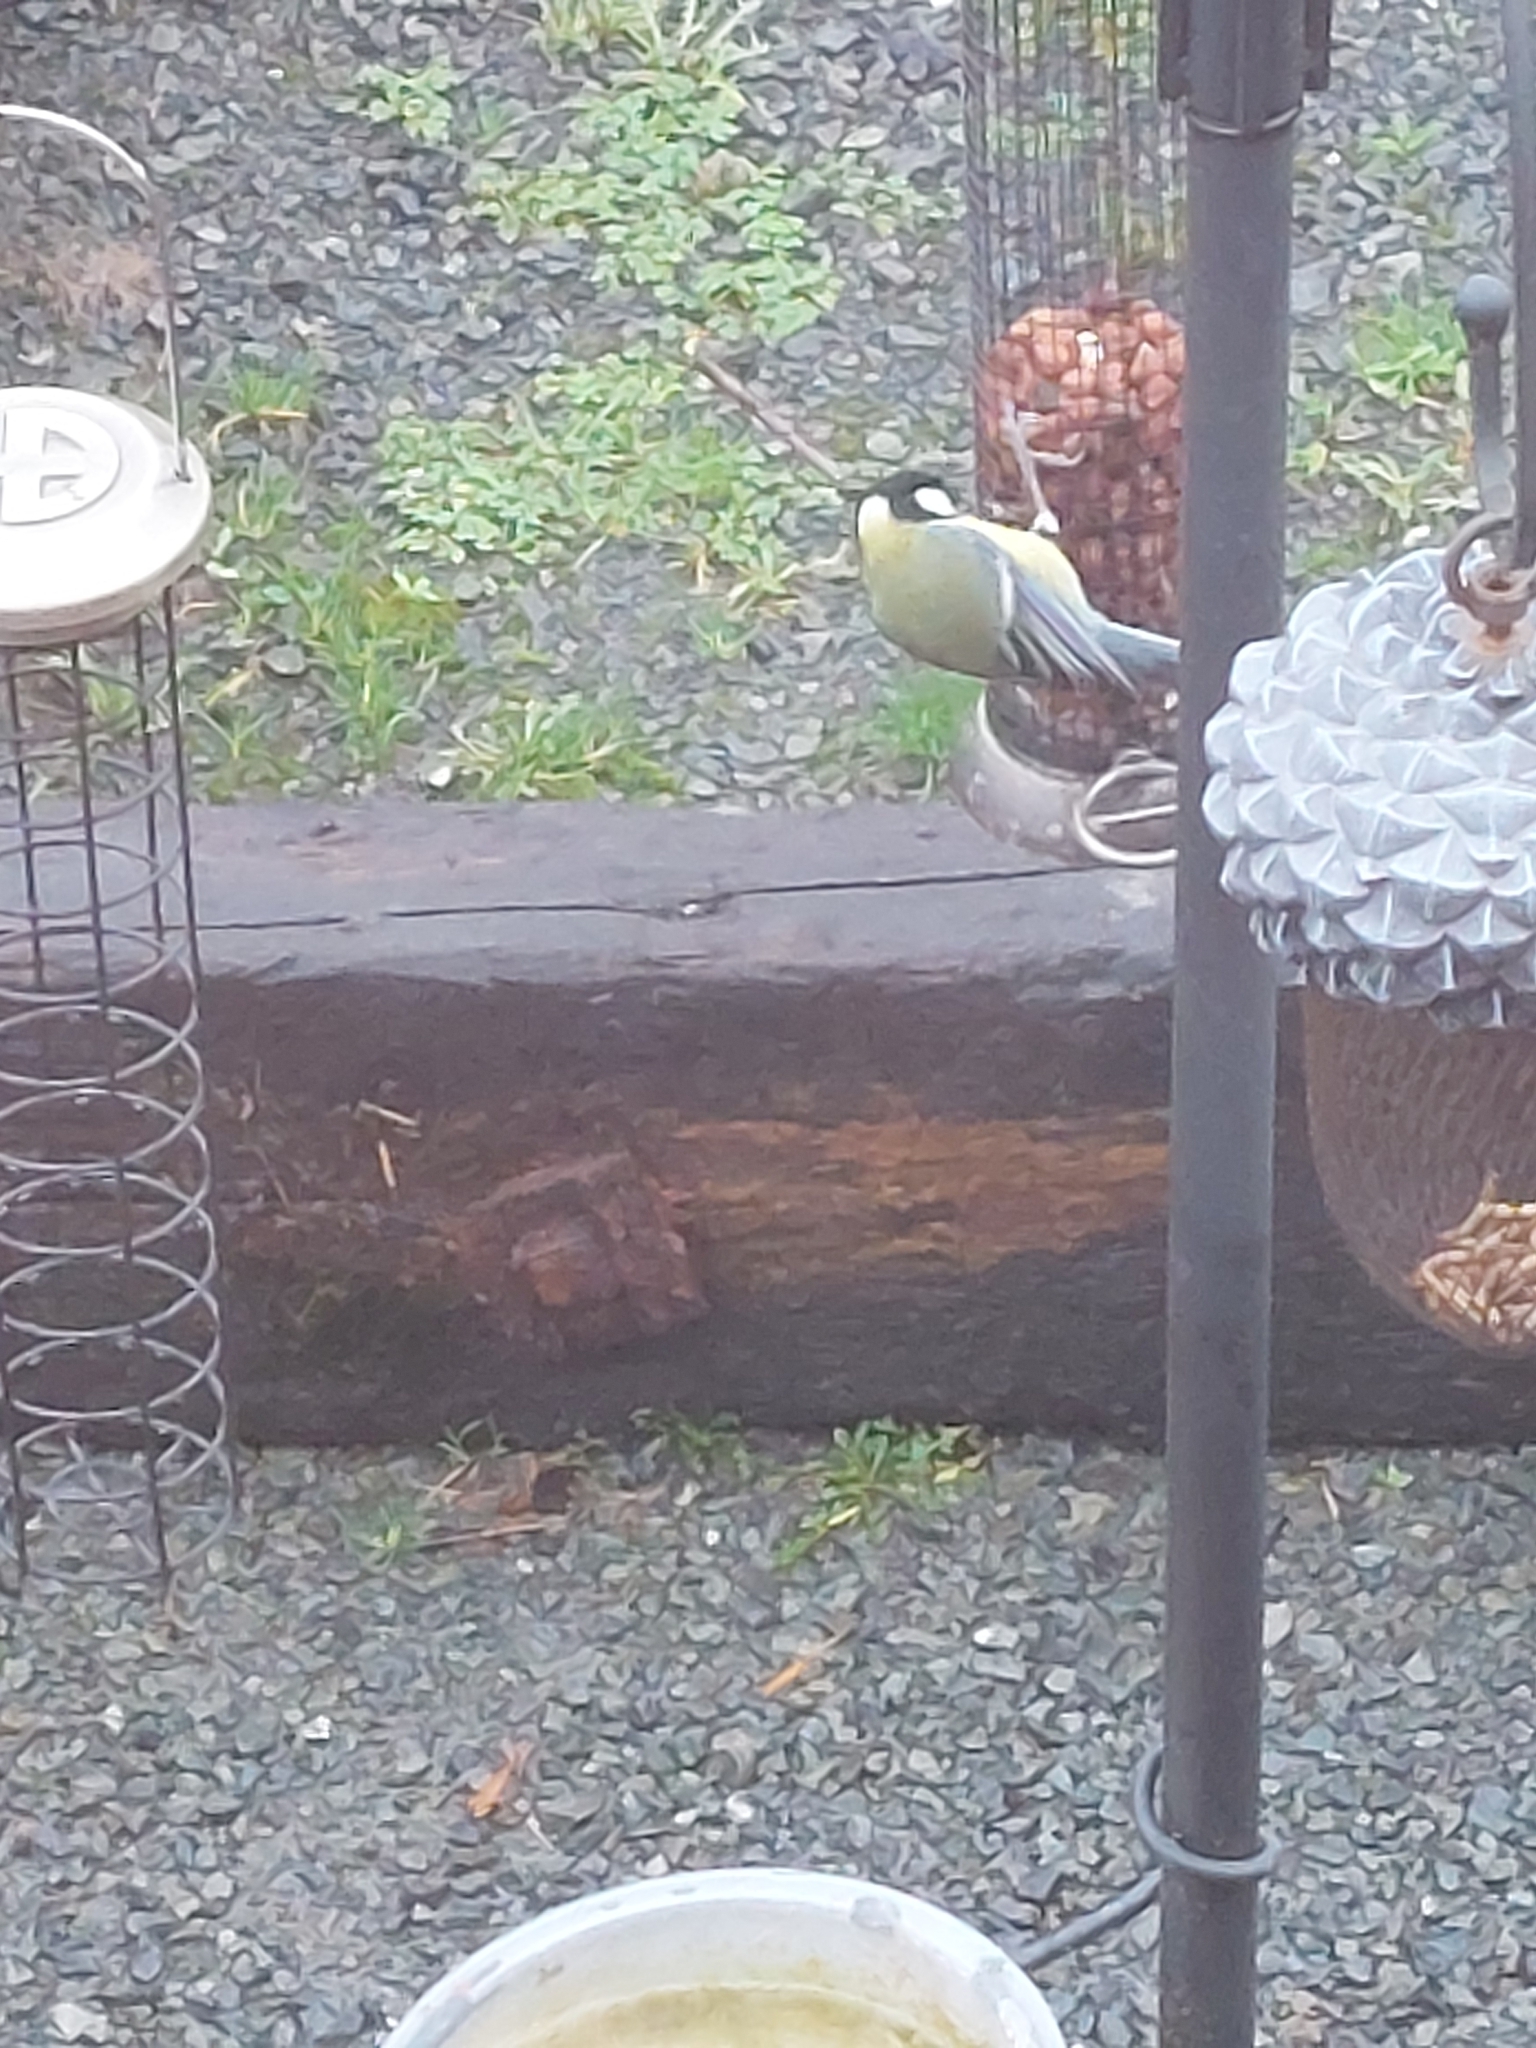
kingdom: Animalia
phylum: Chordata
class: Aves
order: Passeriformes
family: Paridae
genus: Parus
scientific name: Parus major
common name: Great tit
